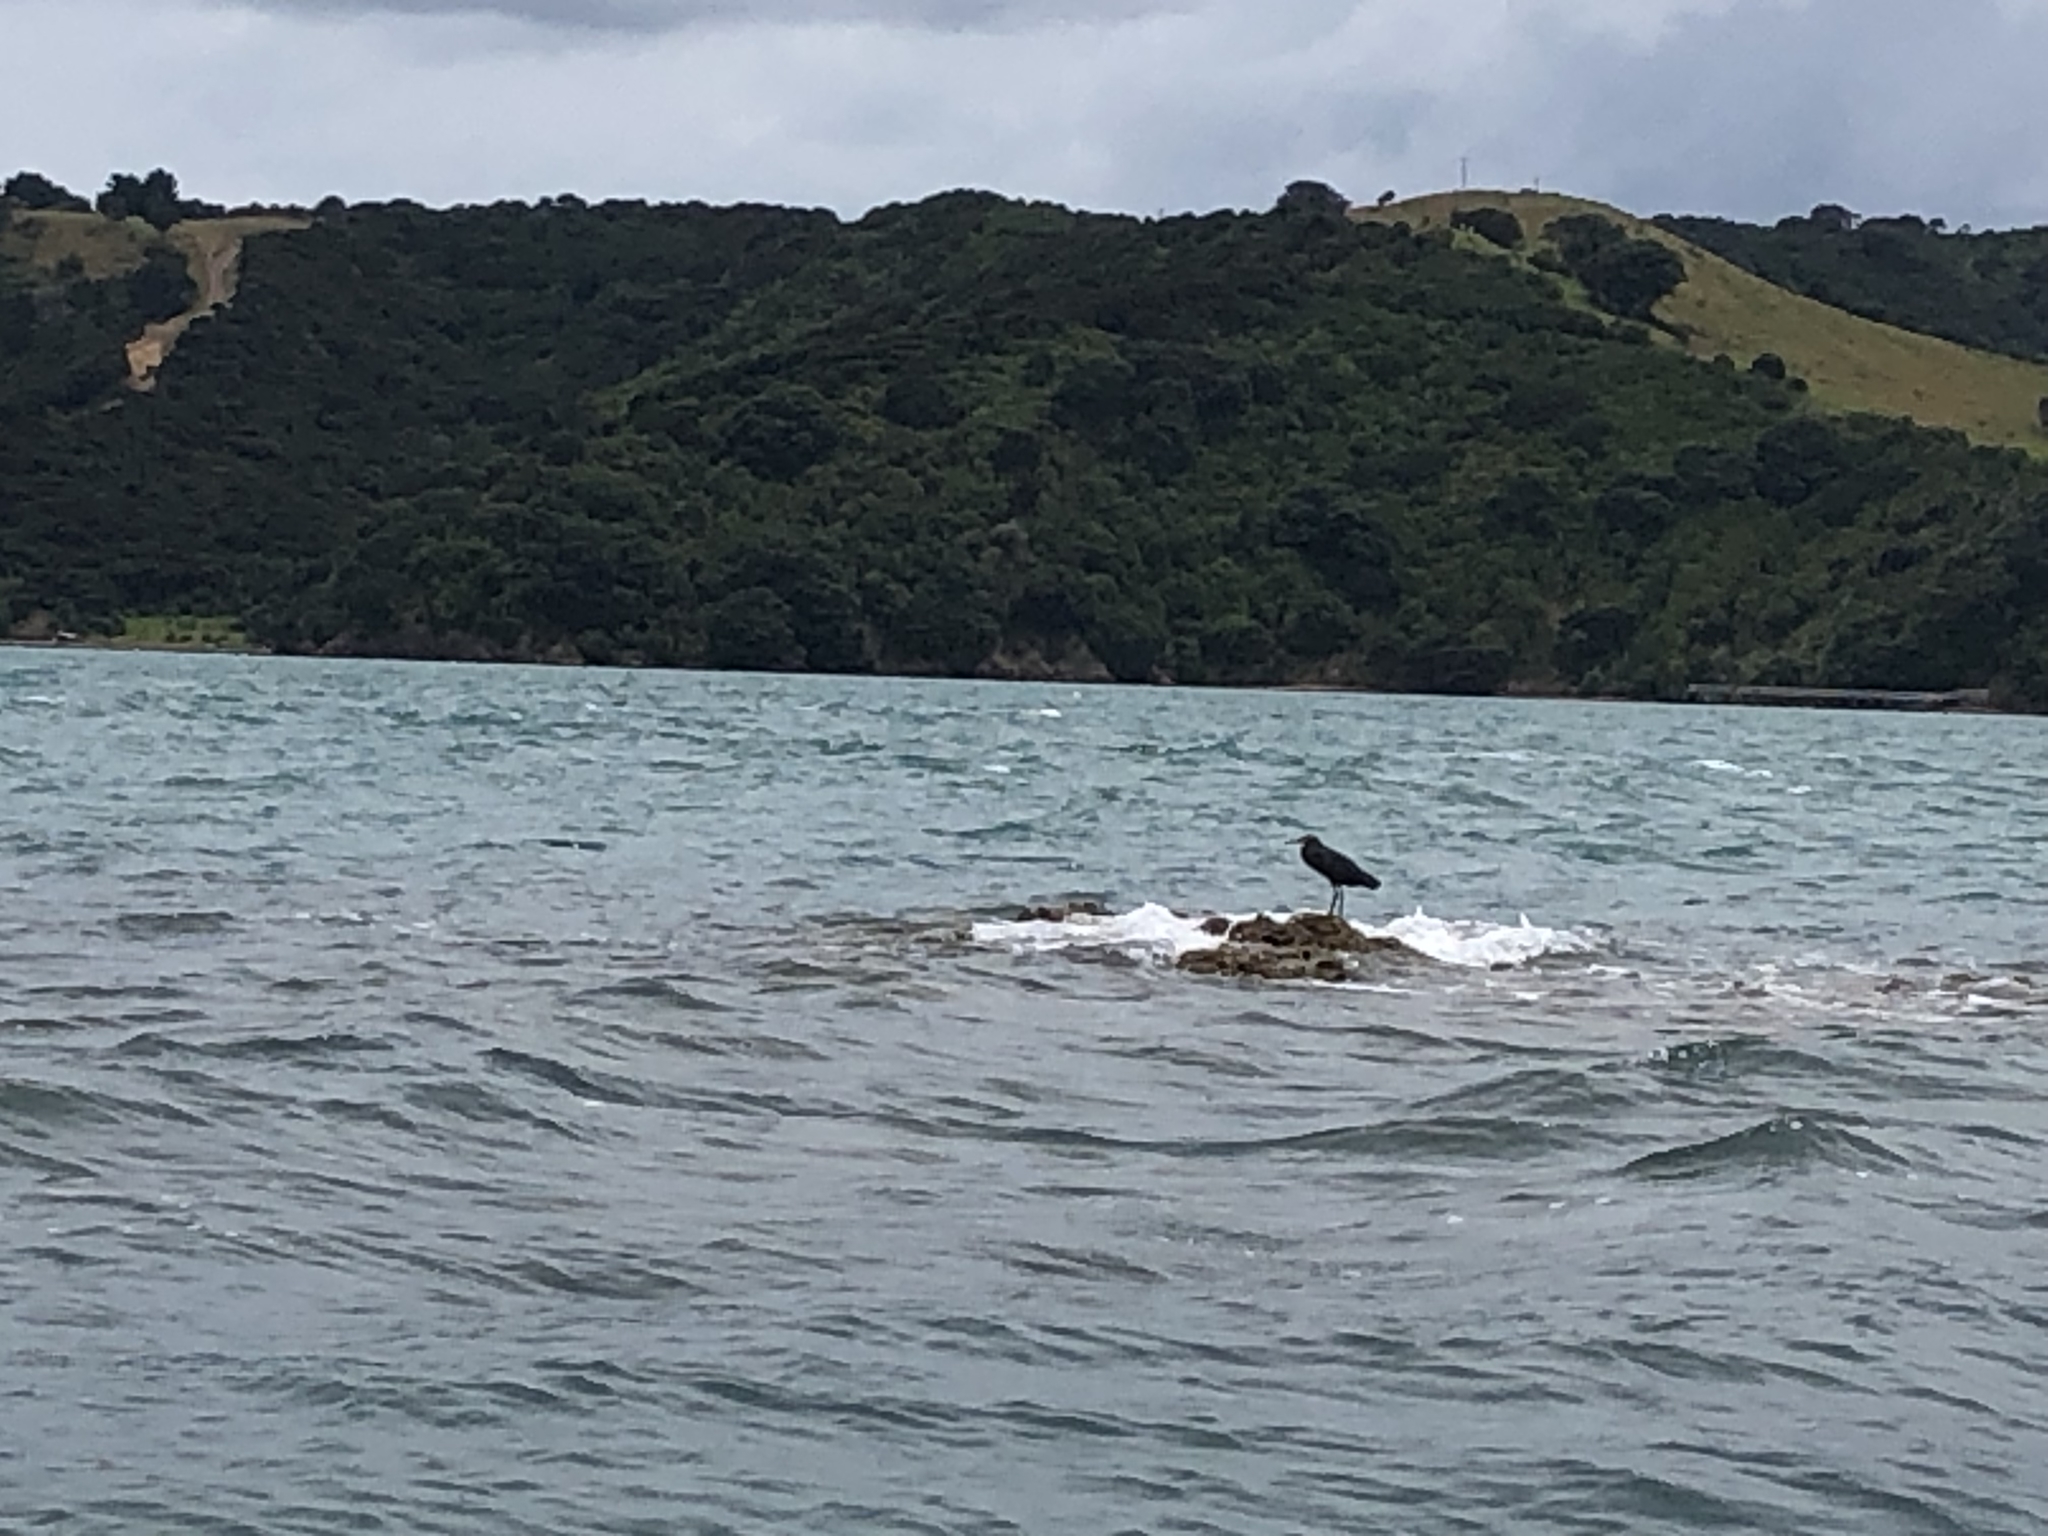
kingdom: Animalia
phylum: Chordata
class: Aves
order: Pelecaniformes
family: Ardeidae
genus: Egretta
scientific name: Egretta sacra
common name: Pacific reef heron
